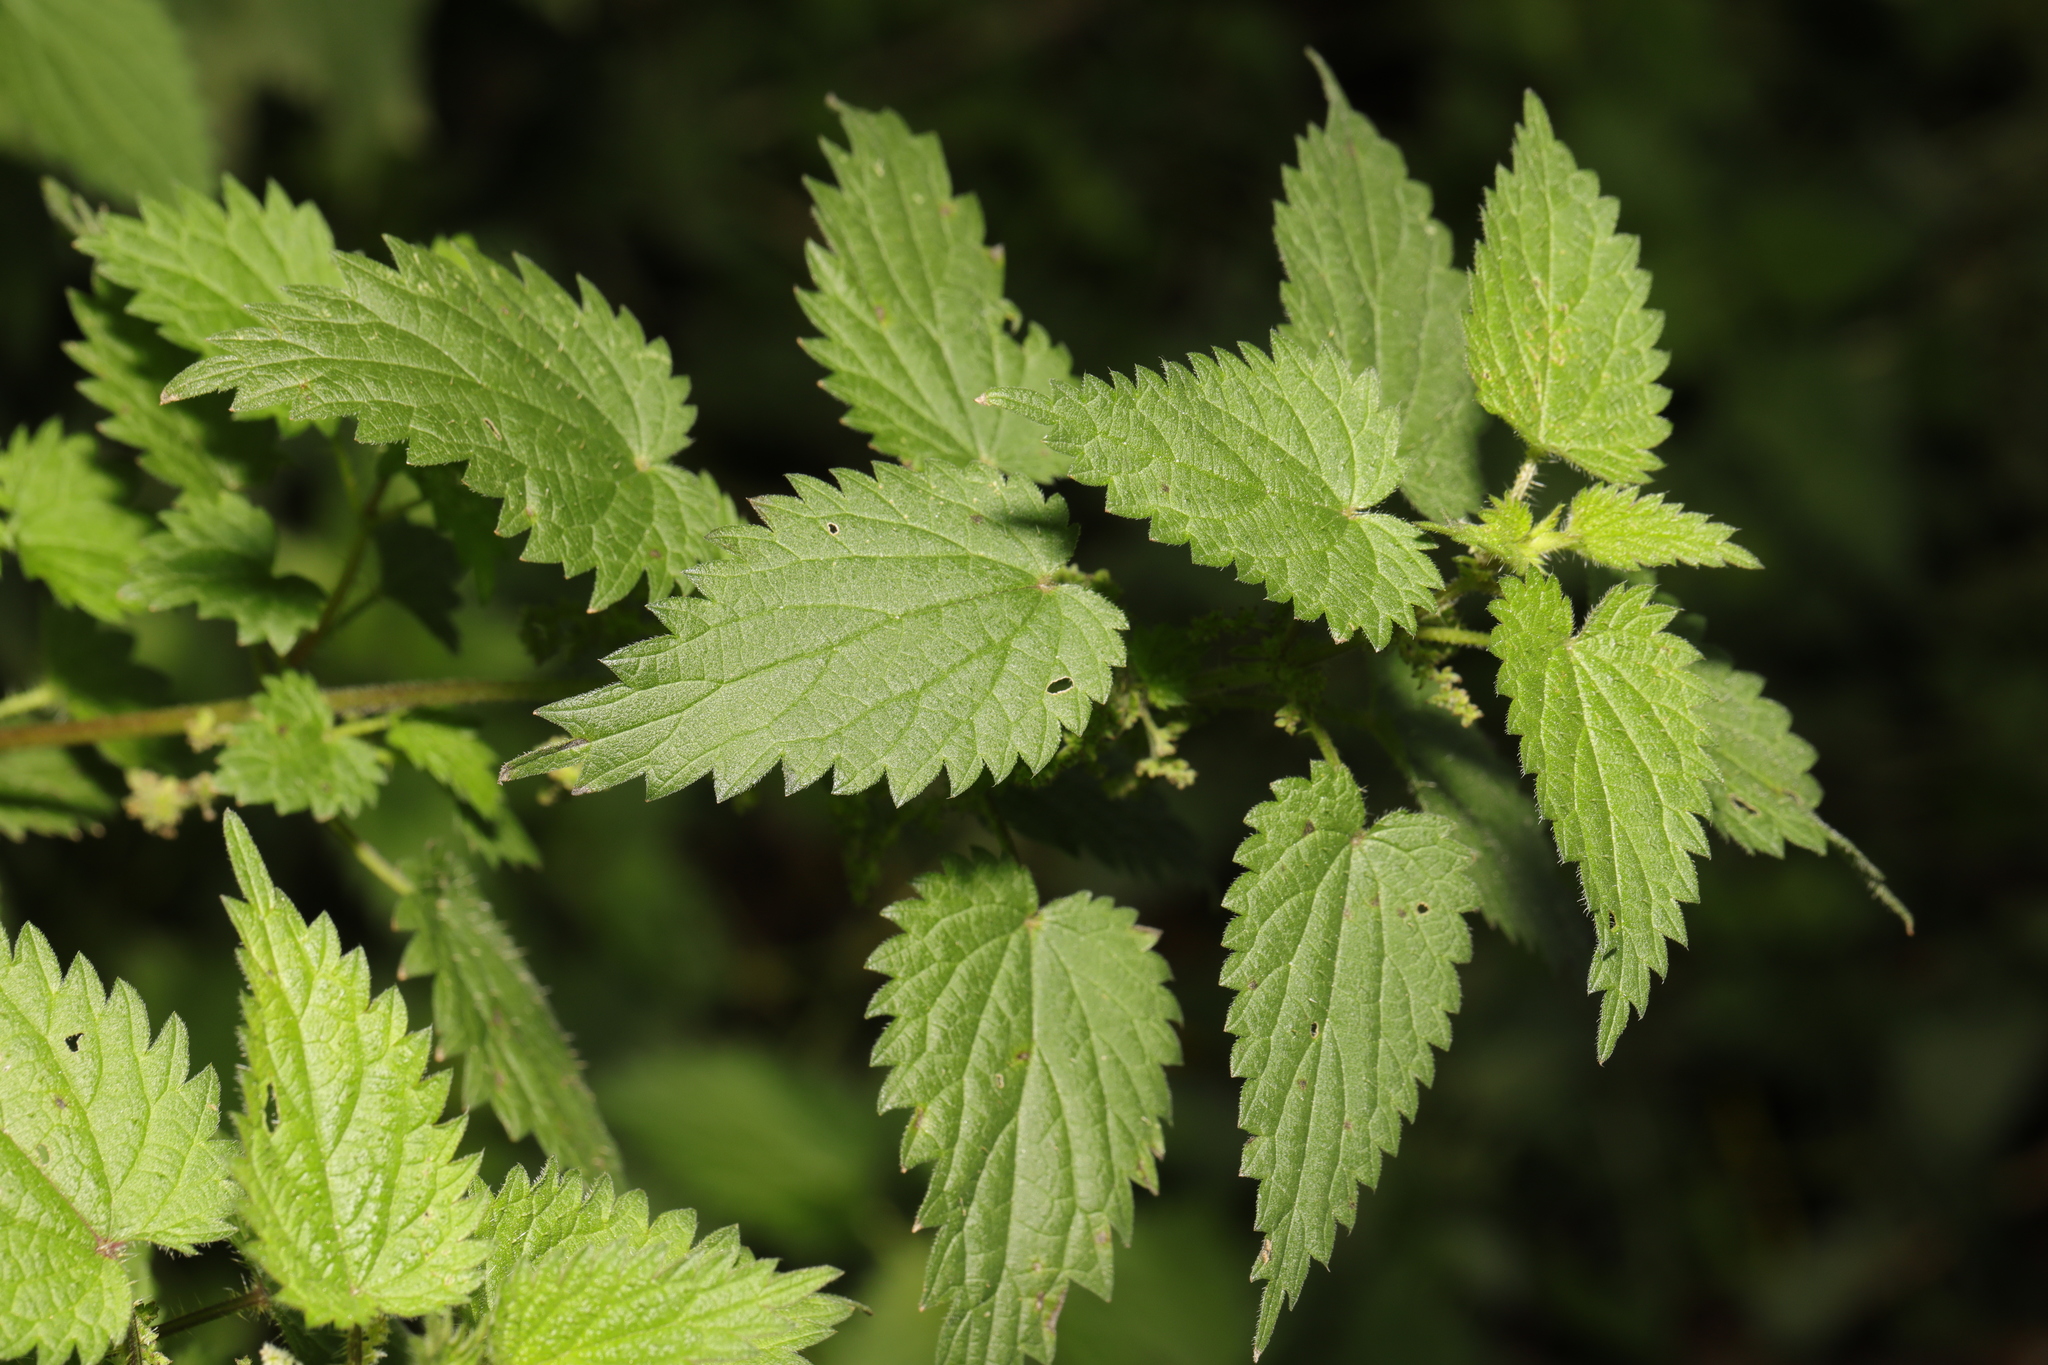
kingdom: Plantae
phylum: Tracheophyta
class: Magnoliopsida
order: Rosales
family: Urticaceae
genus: Urtica
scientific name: Urtica dioica
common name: Common nettle
